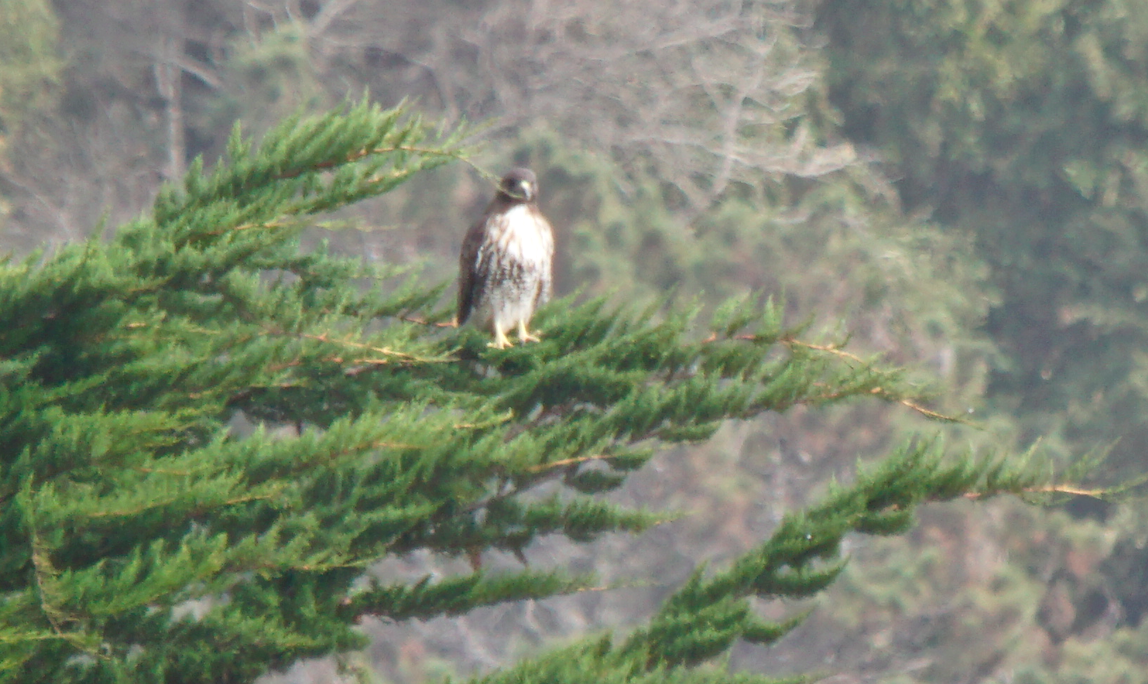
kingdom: Animalia
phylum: Chordata
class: Aves
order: Accipitriformes
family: Accipitridae
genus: Buteo
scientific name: Buteo jamaicensis
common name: Red-tailed hawk
